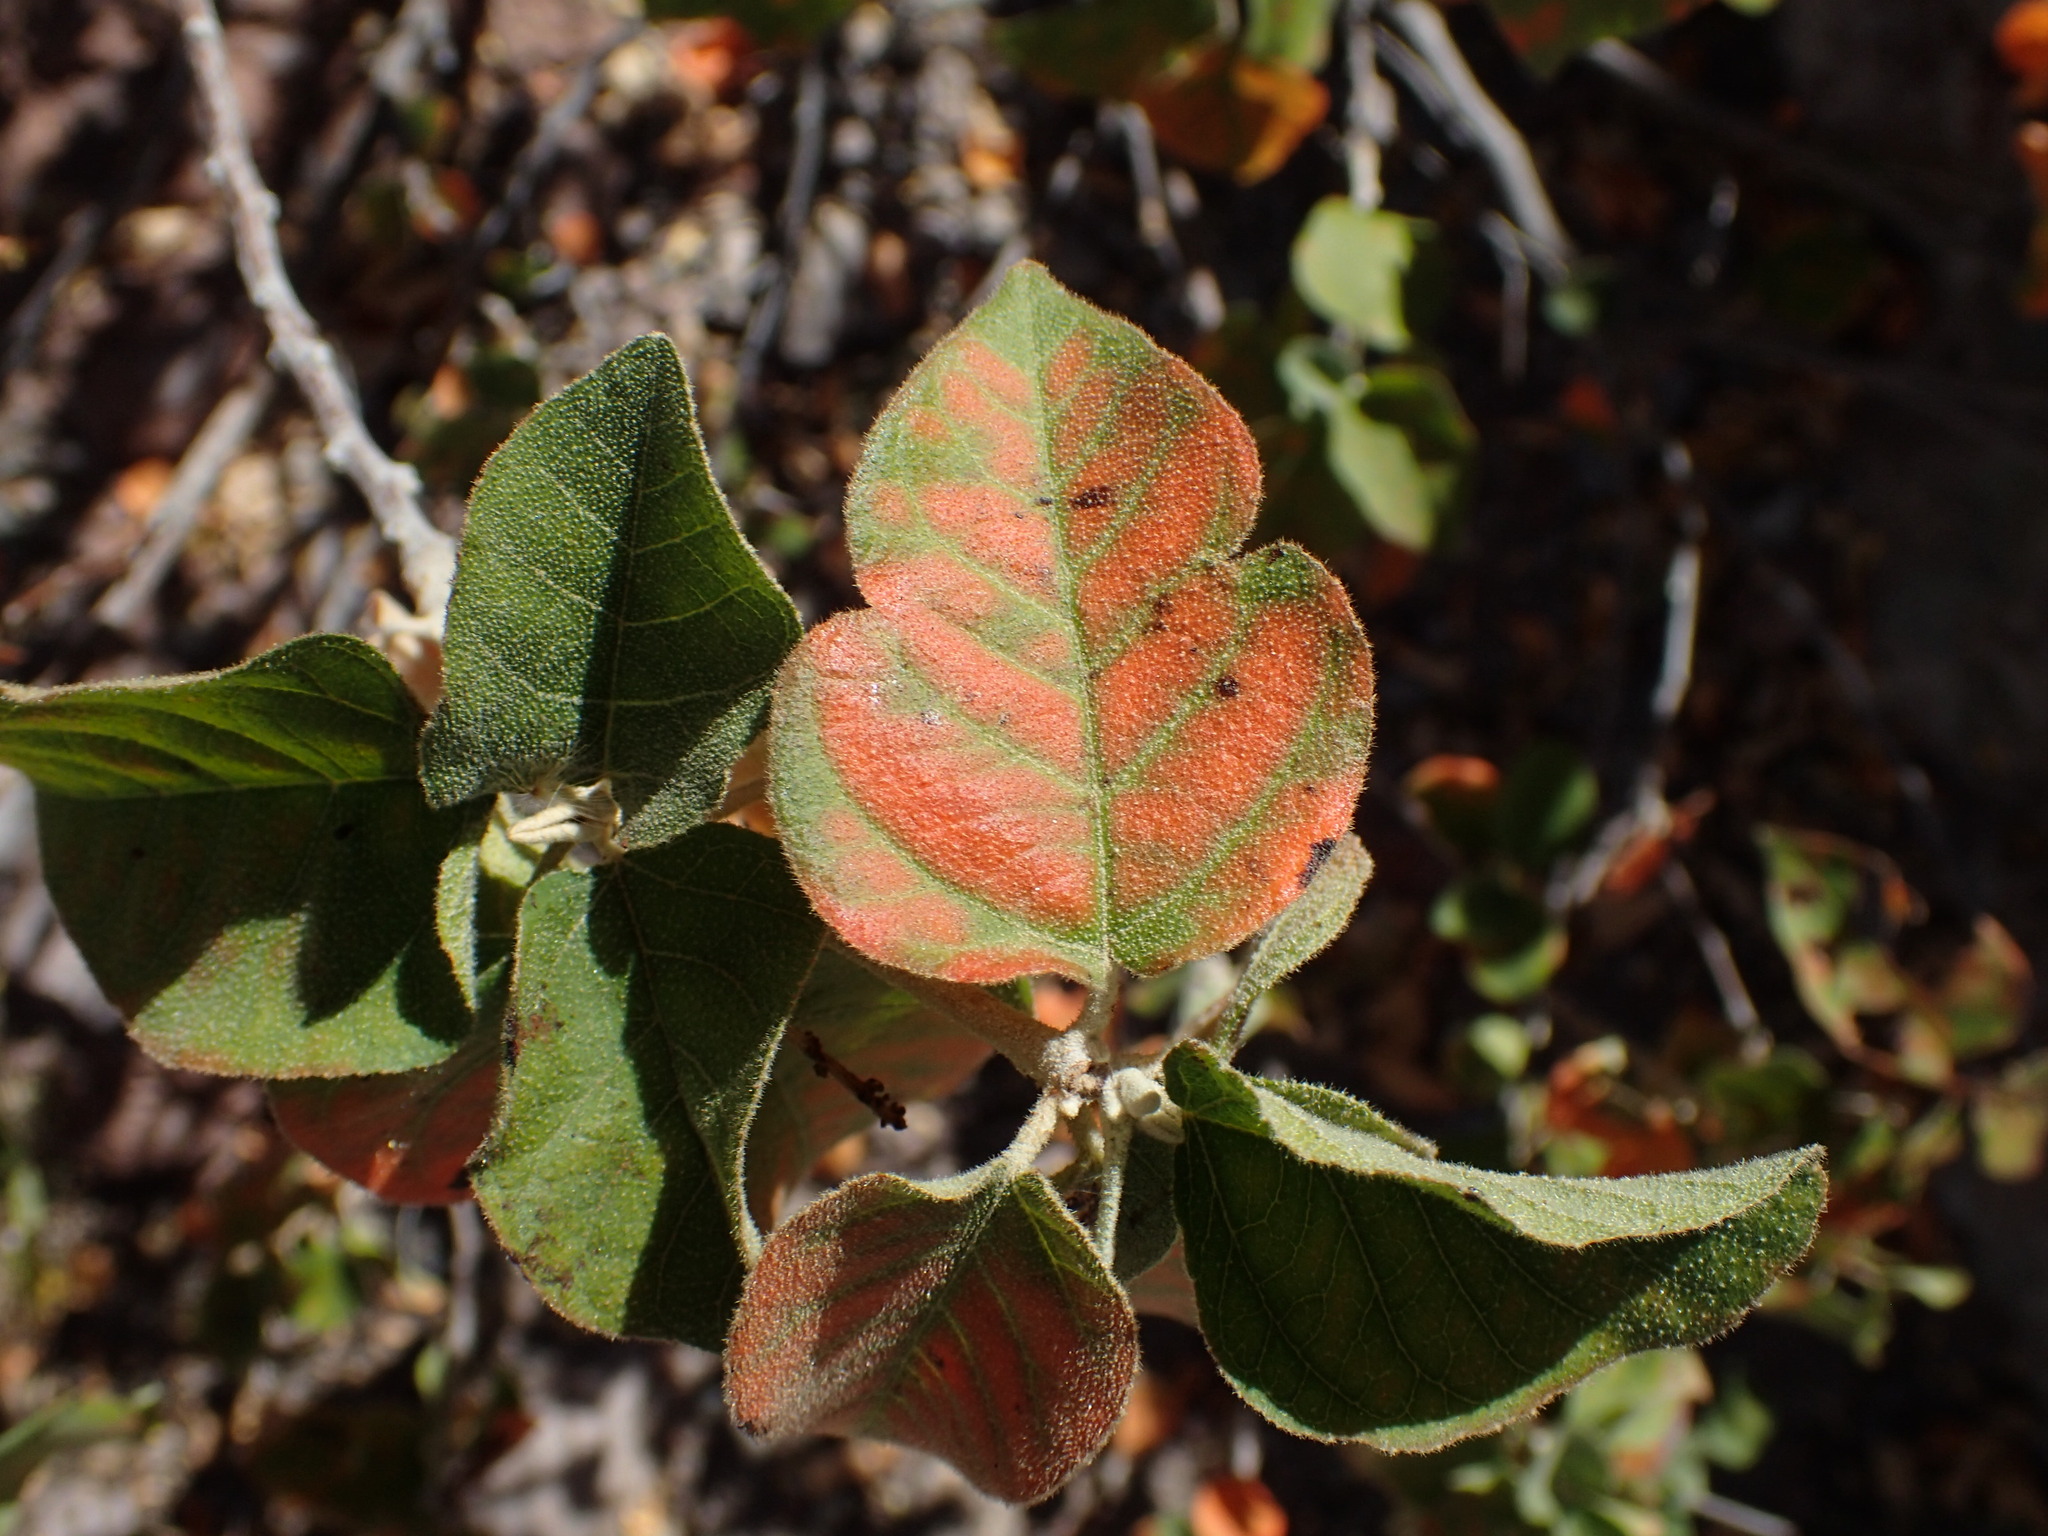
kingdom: Plantae
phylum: Tracheophyta
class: Magnoliopsida
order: Malpighiales
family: Euphorbiaceae
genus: Croton
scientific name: Croton sonorae
